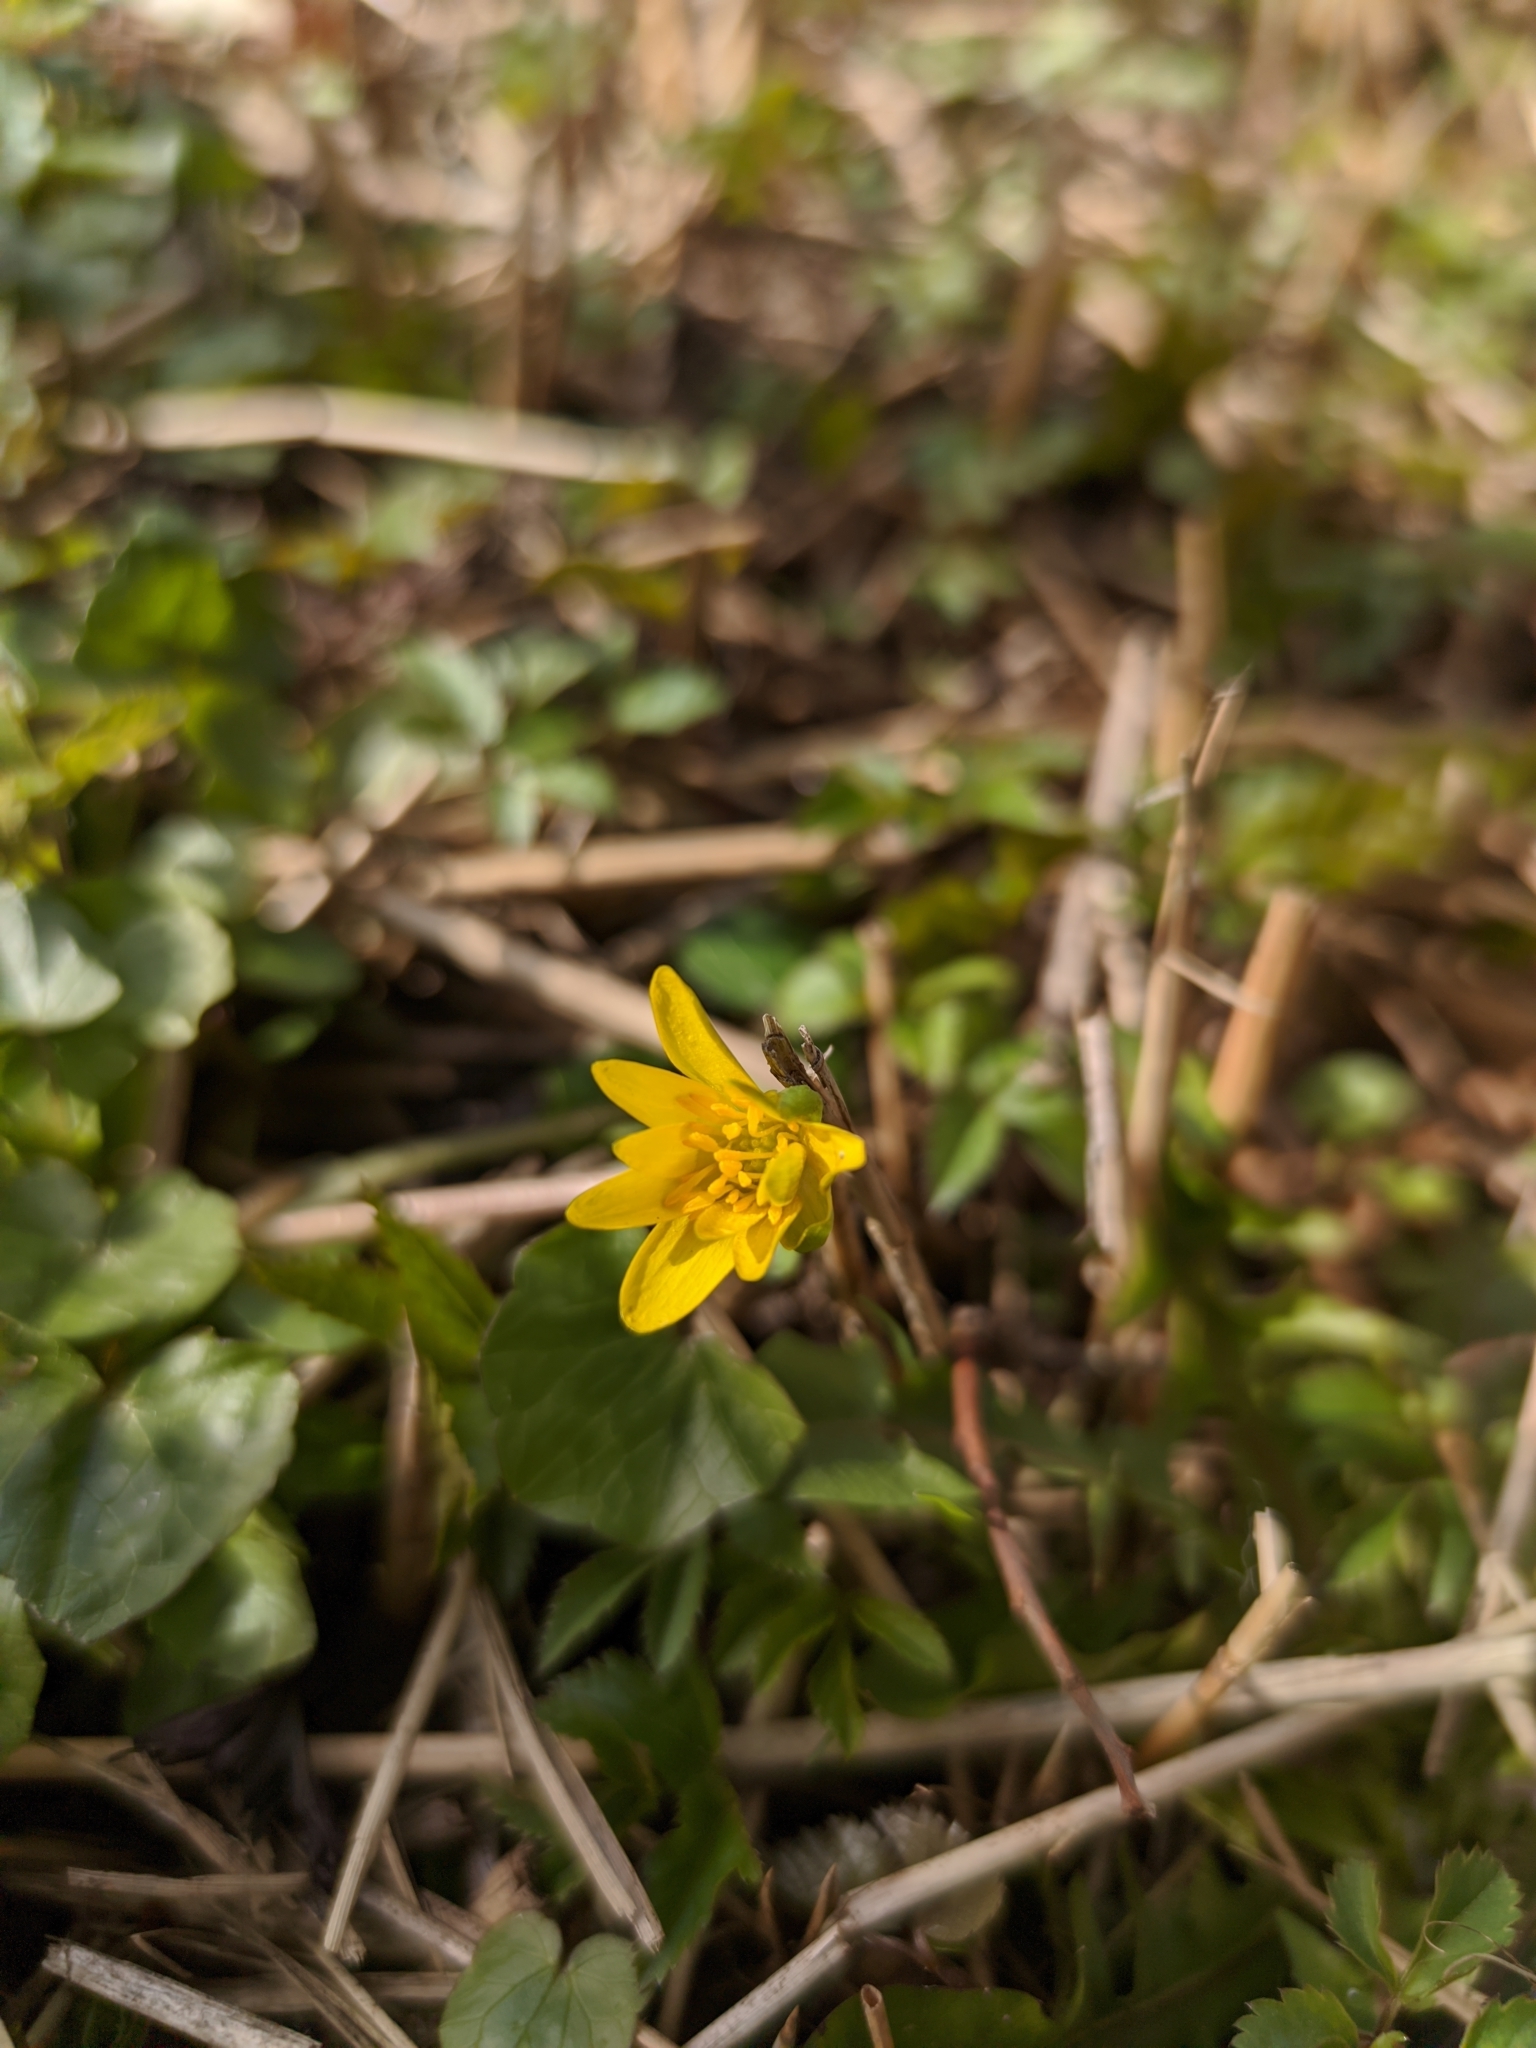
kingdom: Plantae
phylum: Tracheophyta
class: Magnoliopsida
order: Ranunculales
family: Ranunculaceae
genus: Ficaria
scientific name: Ficaria verna
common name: Lesser celandine
